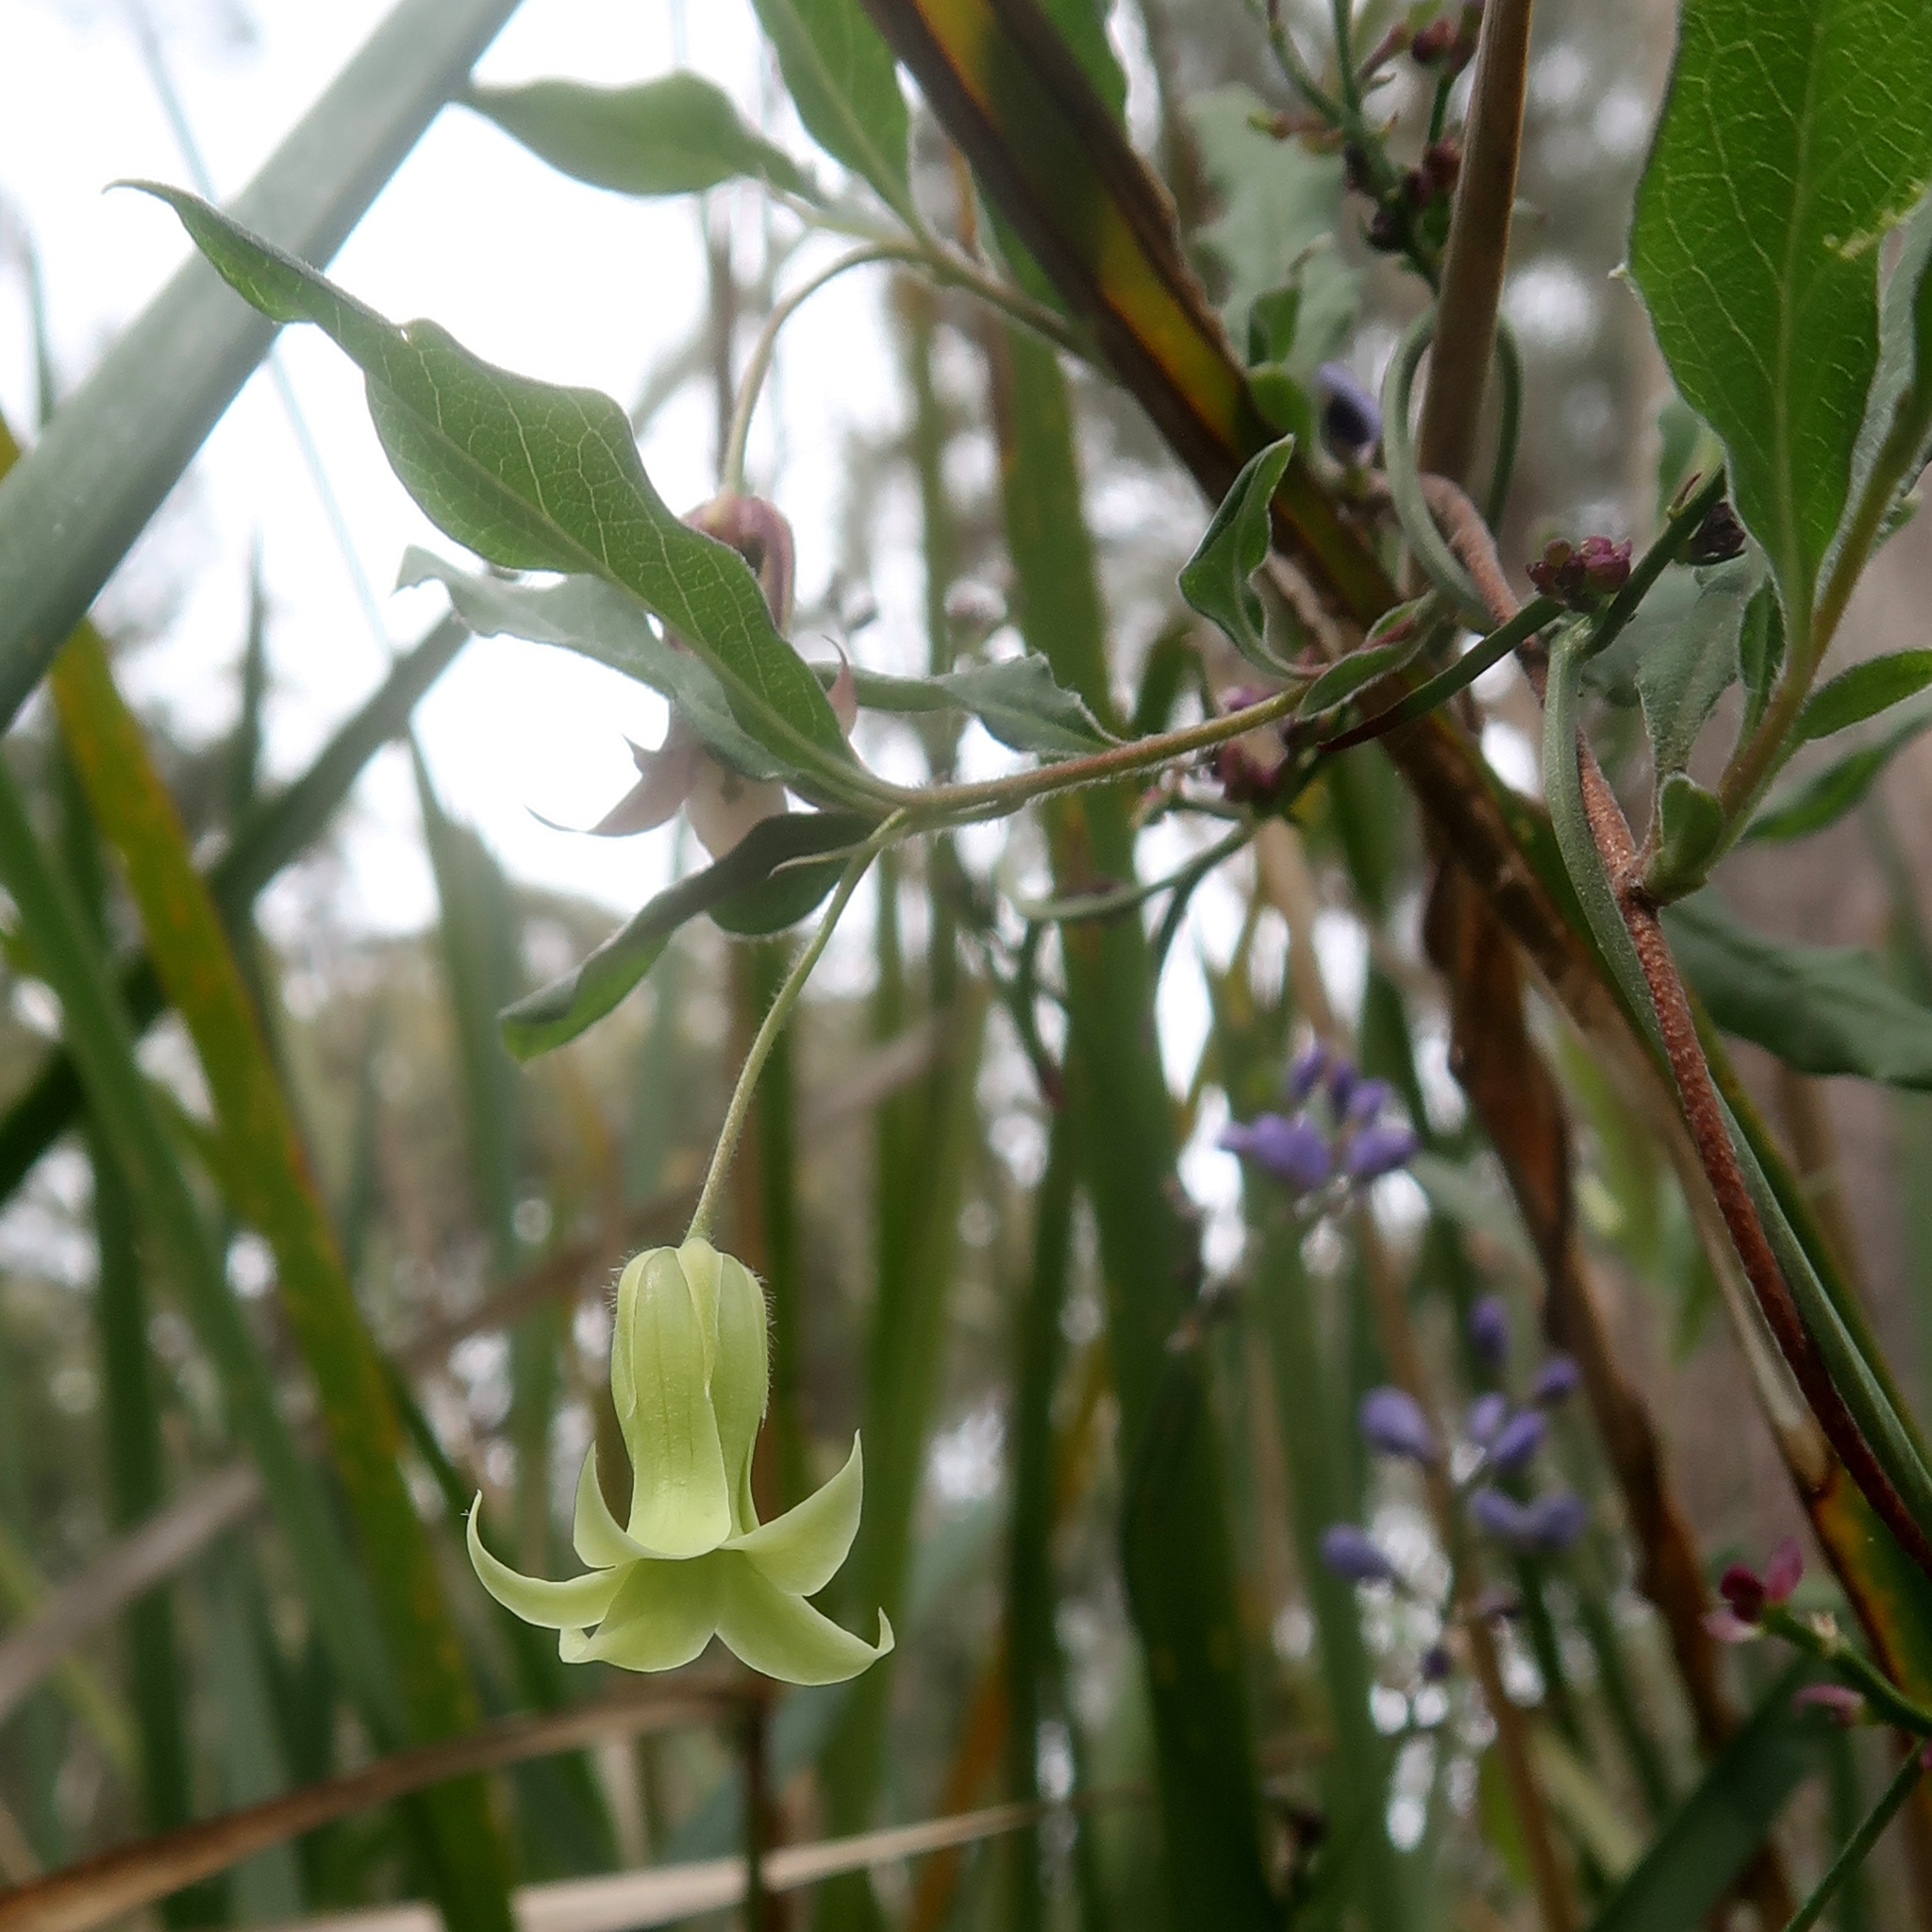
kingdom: Plantae
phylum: Tracheophyta
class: Magnoliopsida
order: Apiales
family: Pittosporaceae
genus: Billardiera
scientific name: Billardiera scandens
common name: Apple-berry
